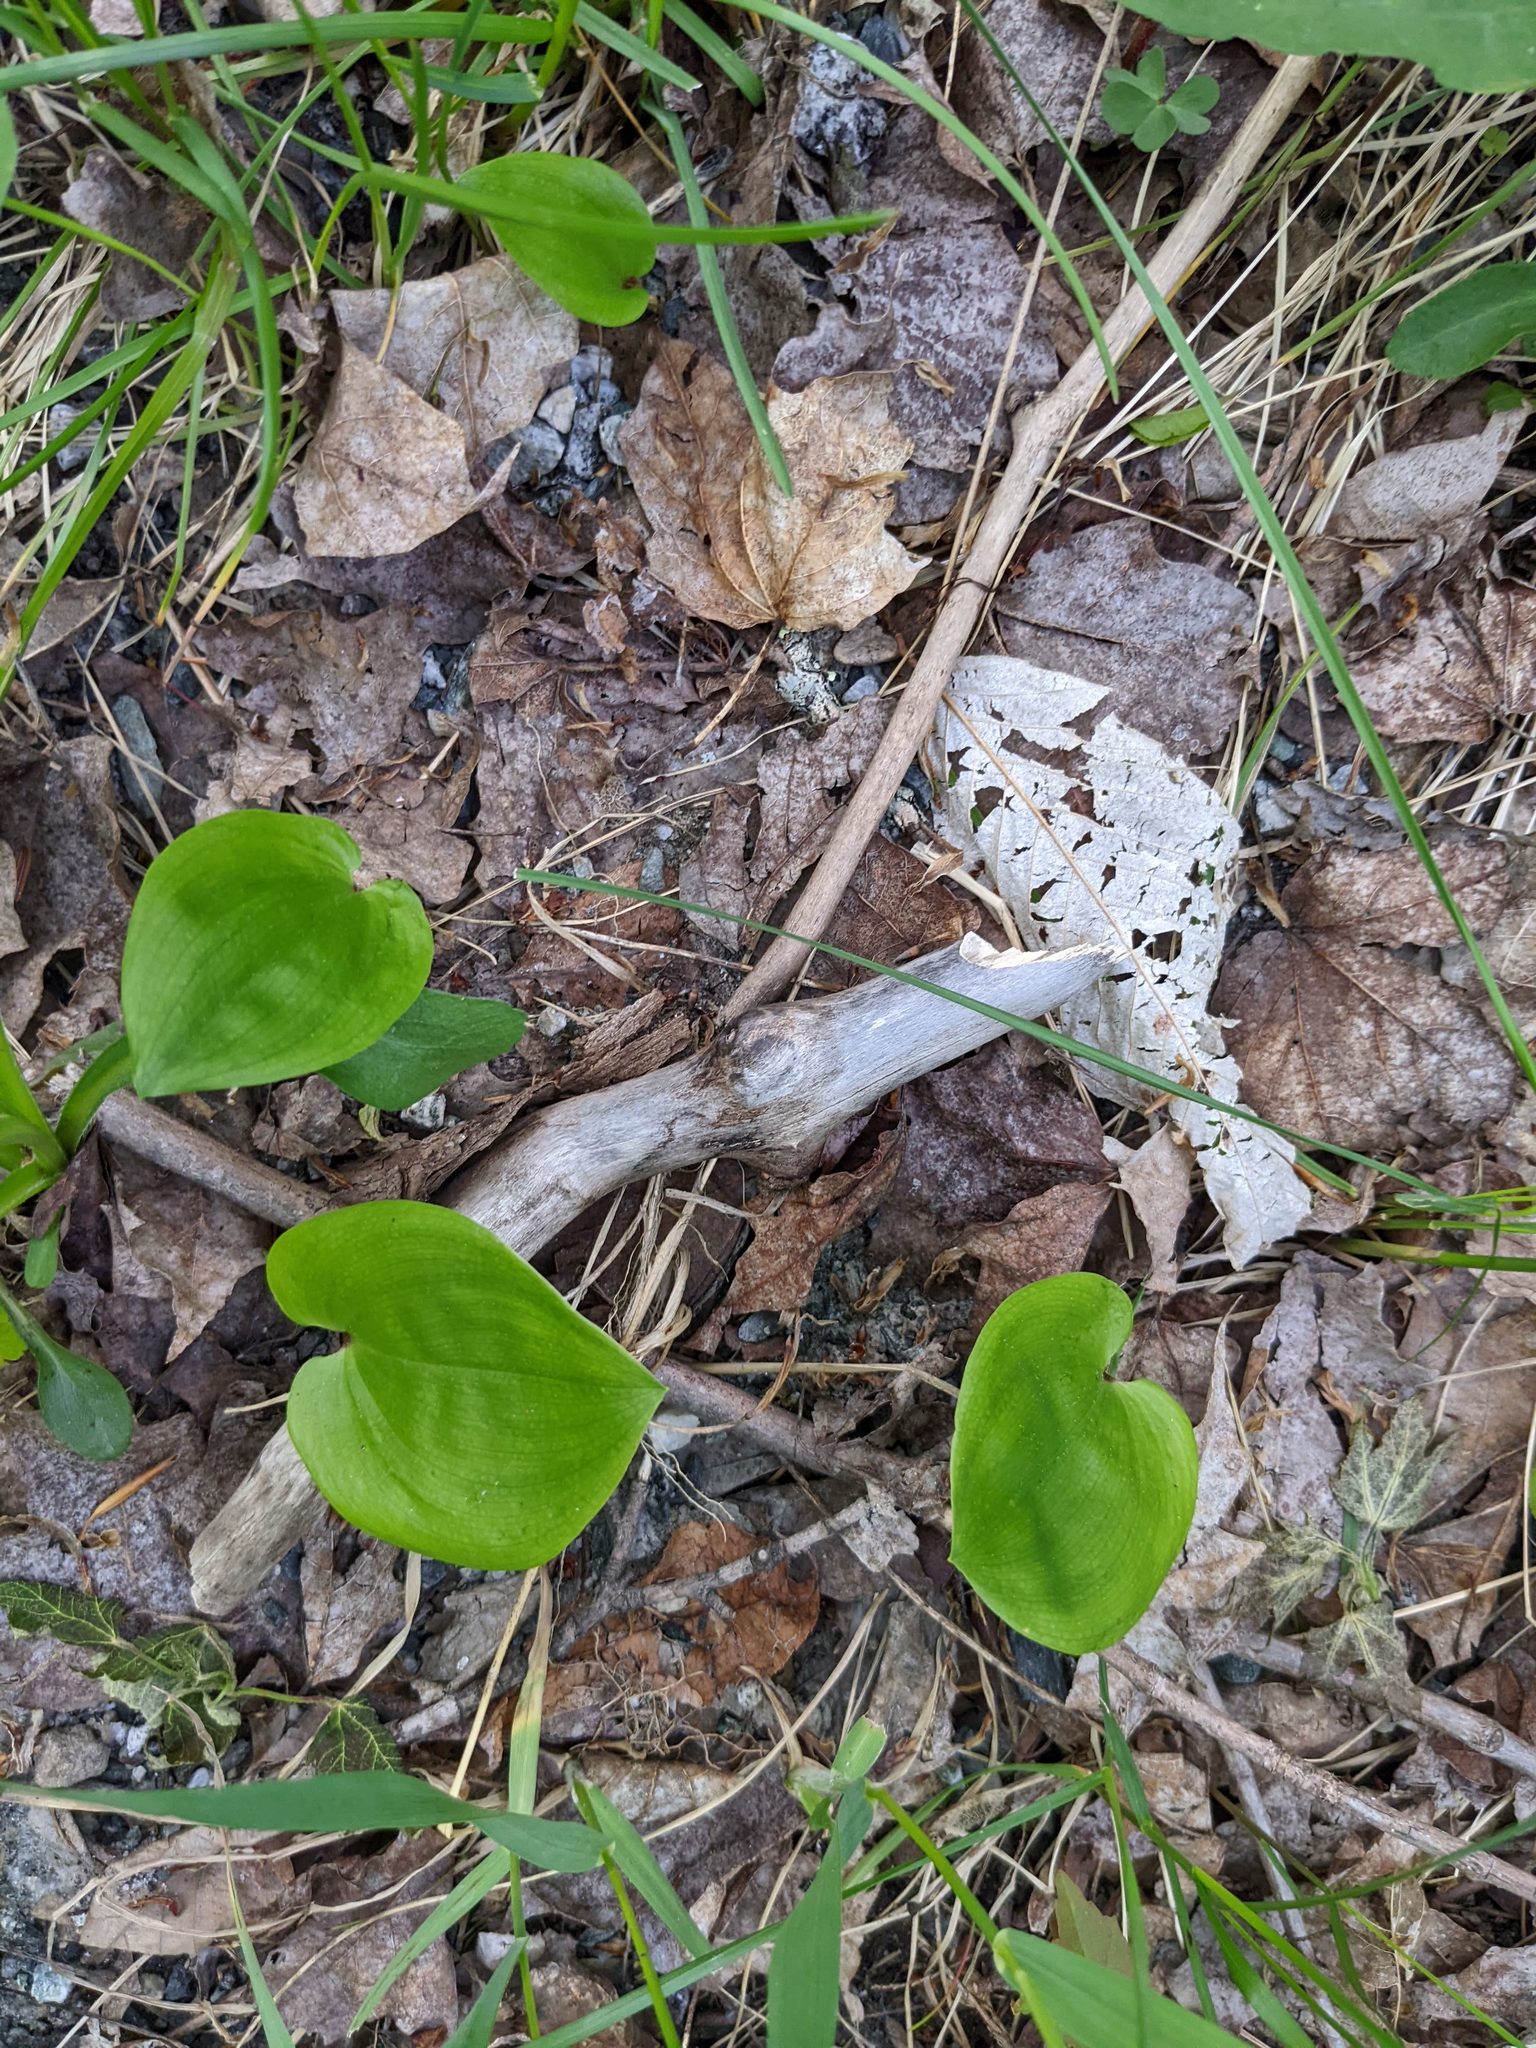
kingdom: Plantae
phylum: Tracheophyta
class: Liliopsida
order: Asparagales
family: Asparagaceae
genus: Maianthemum
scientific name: Maianthemum canadense
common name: False lily-of-the-valley
